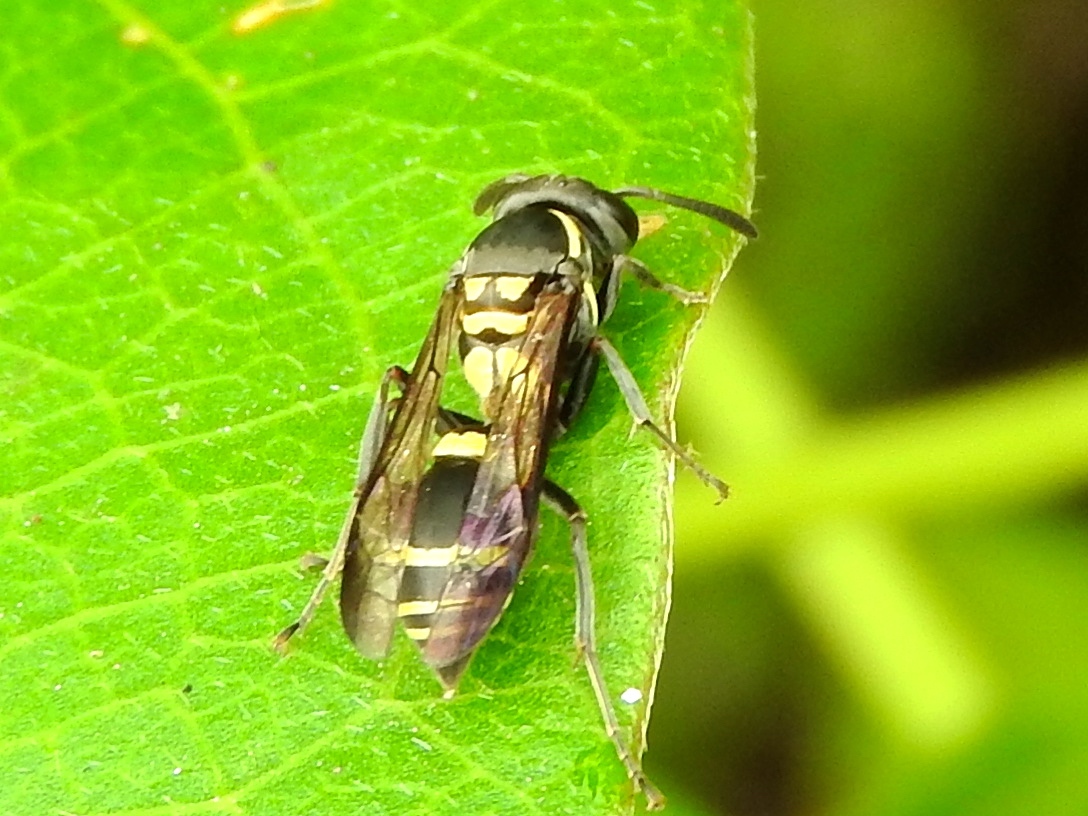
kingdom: Animalia
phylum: Arthropoda
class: Insecta
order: Hymenoptera
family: Eumenidae
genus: Polybia
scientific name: Polybia
